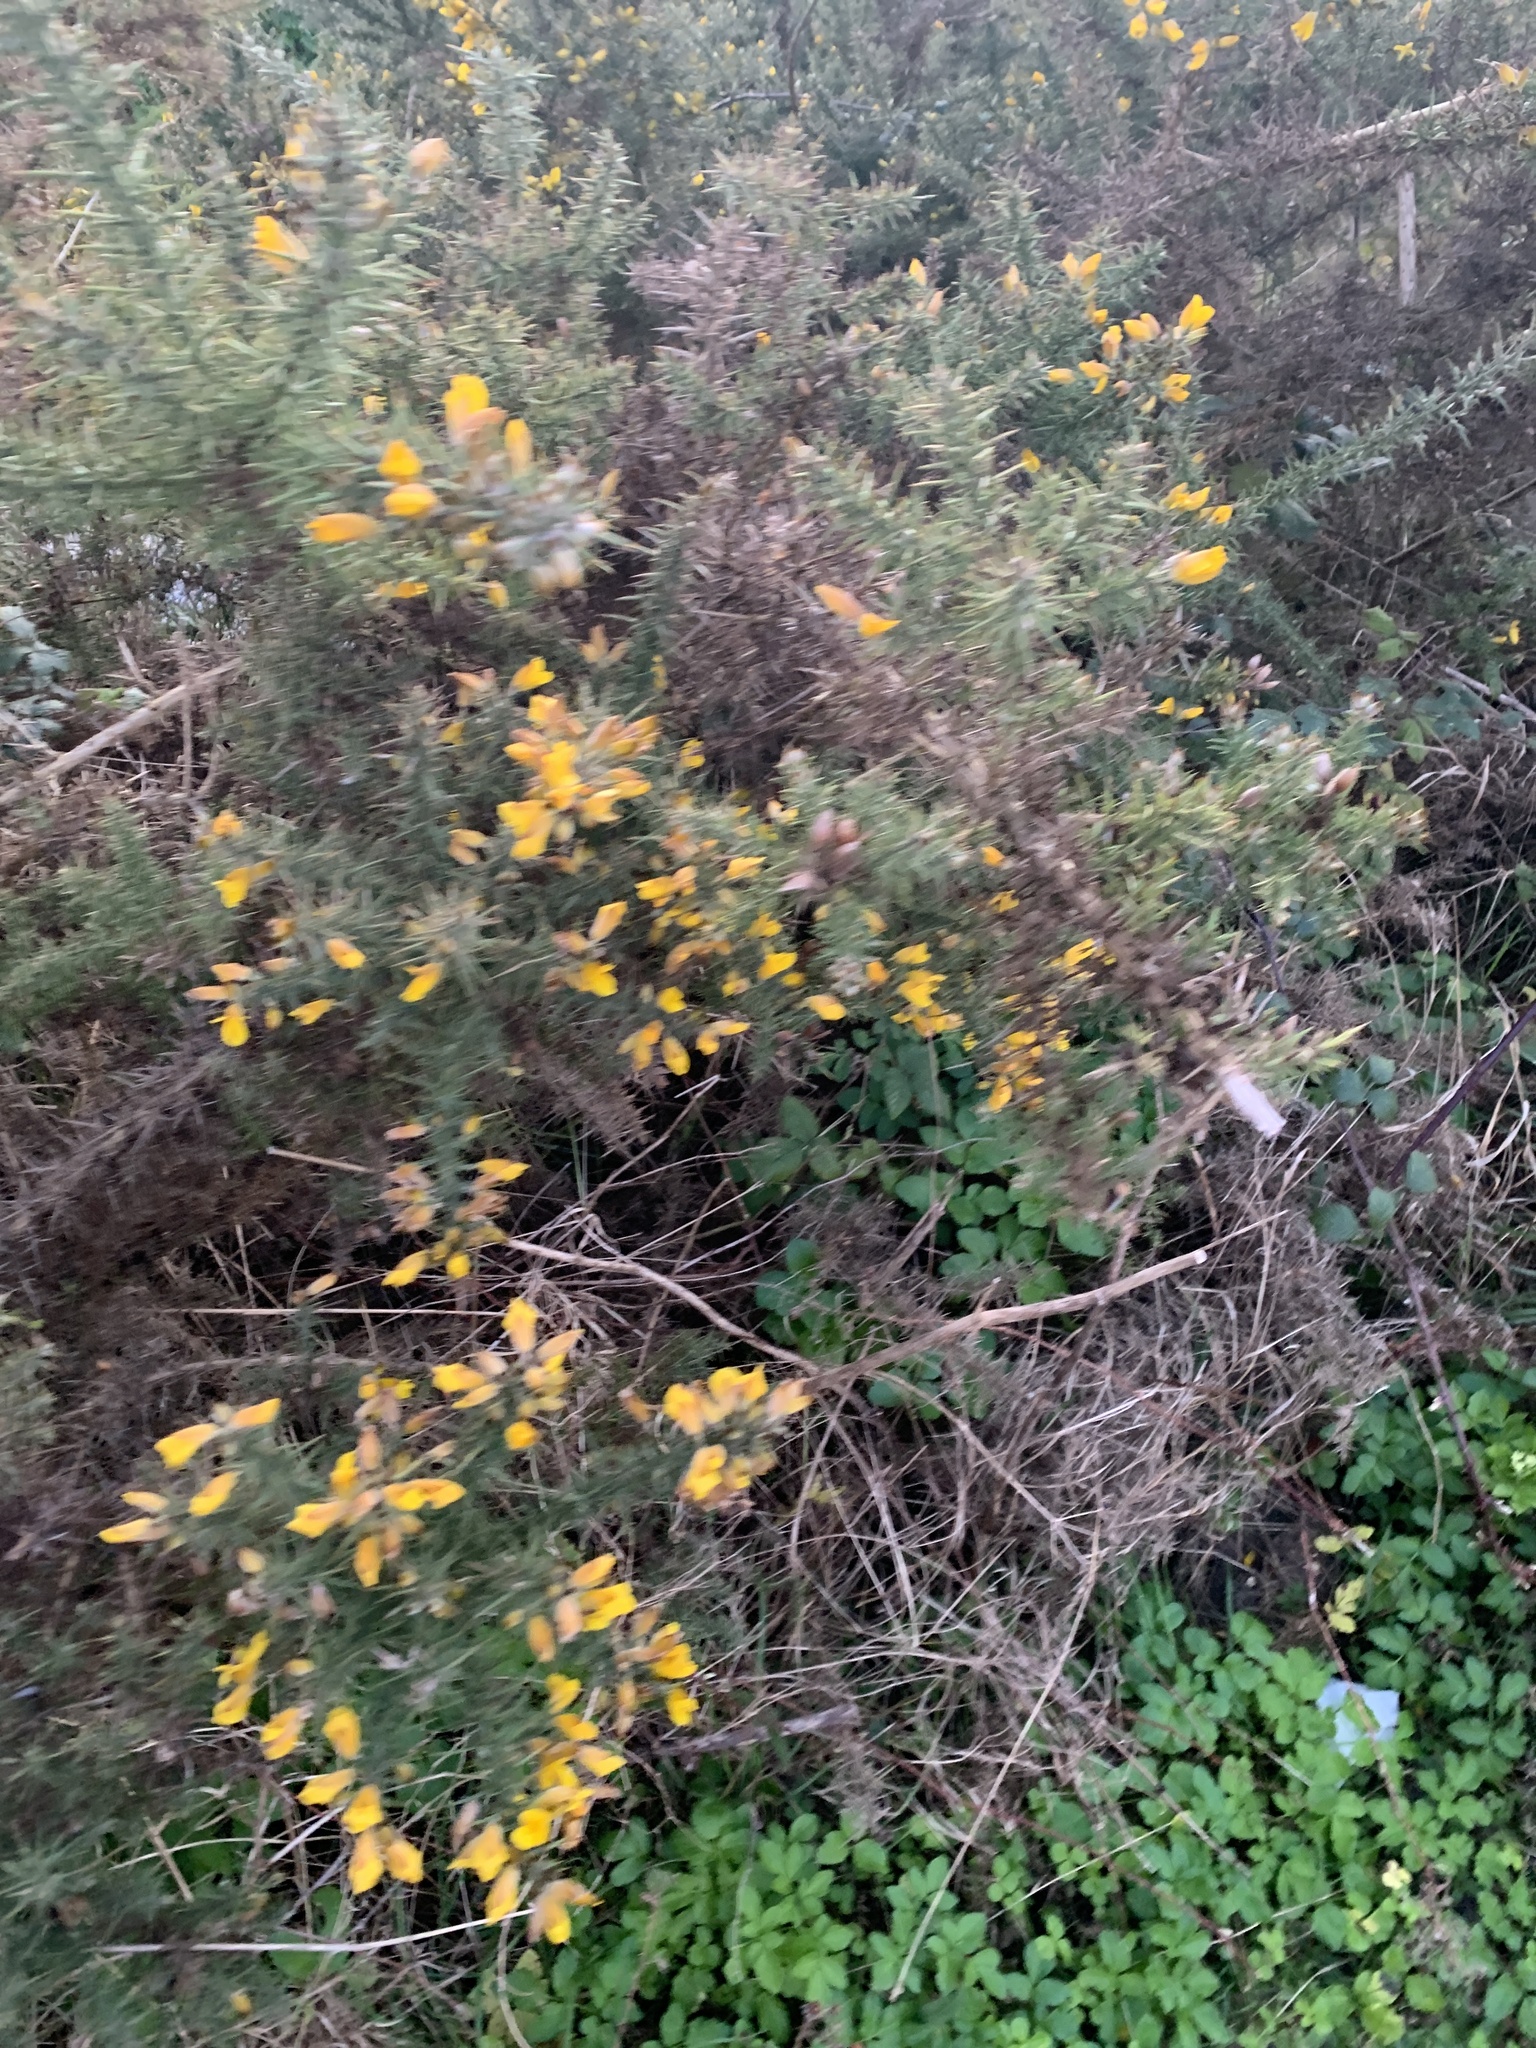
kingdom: Plantae
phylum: Tracheophyta
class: Magnoliopsida
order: Fabales
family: Fabaceae
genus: Ulex
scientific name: Ulex europaeus
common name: Common gorse
